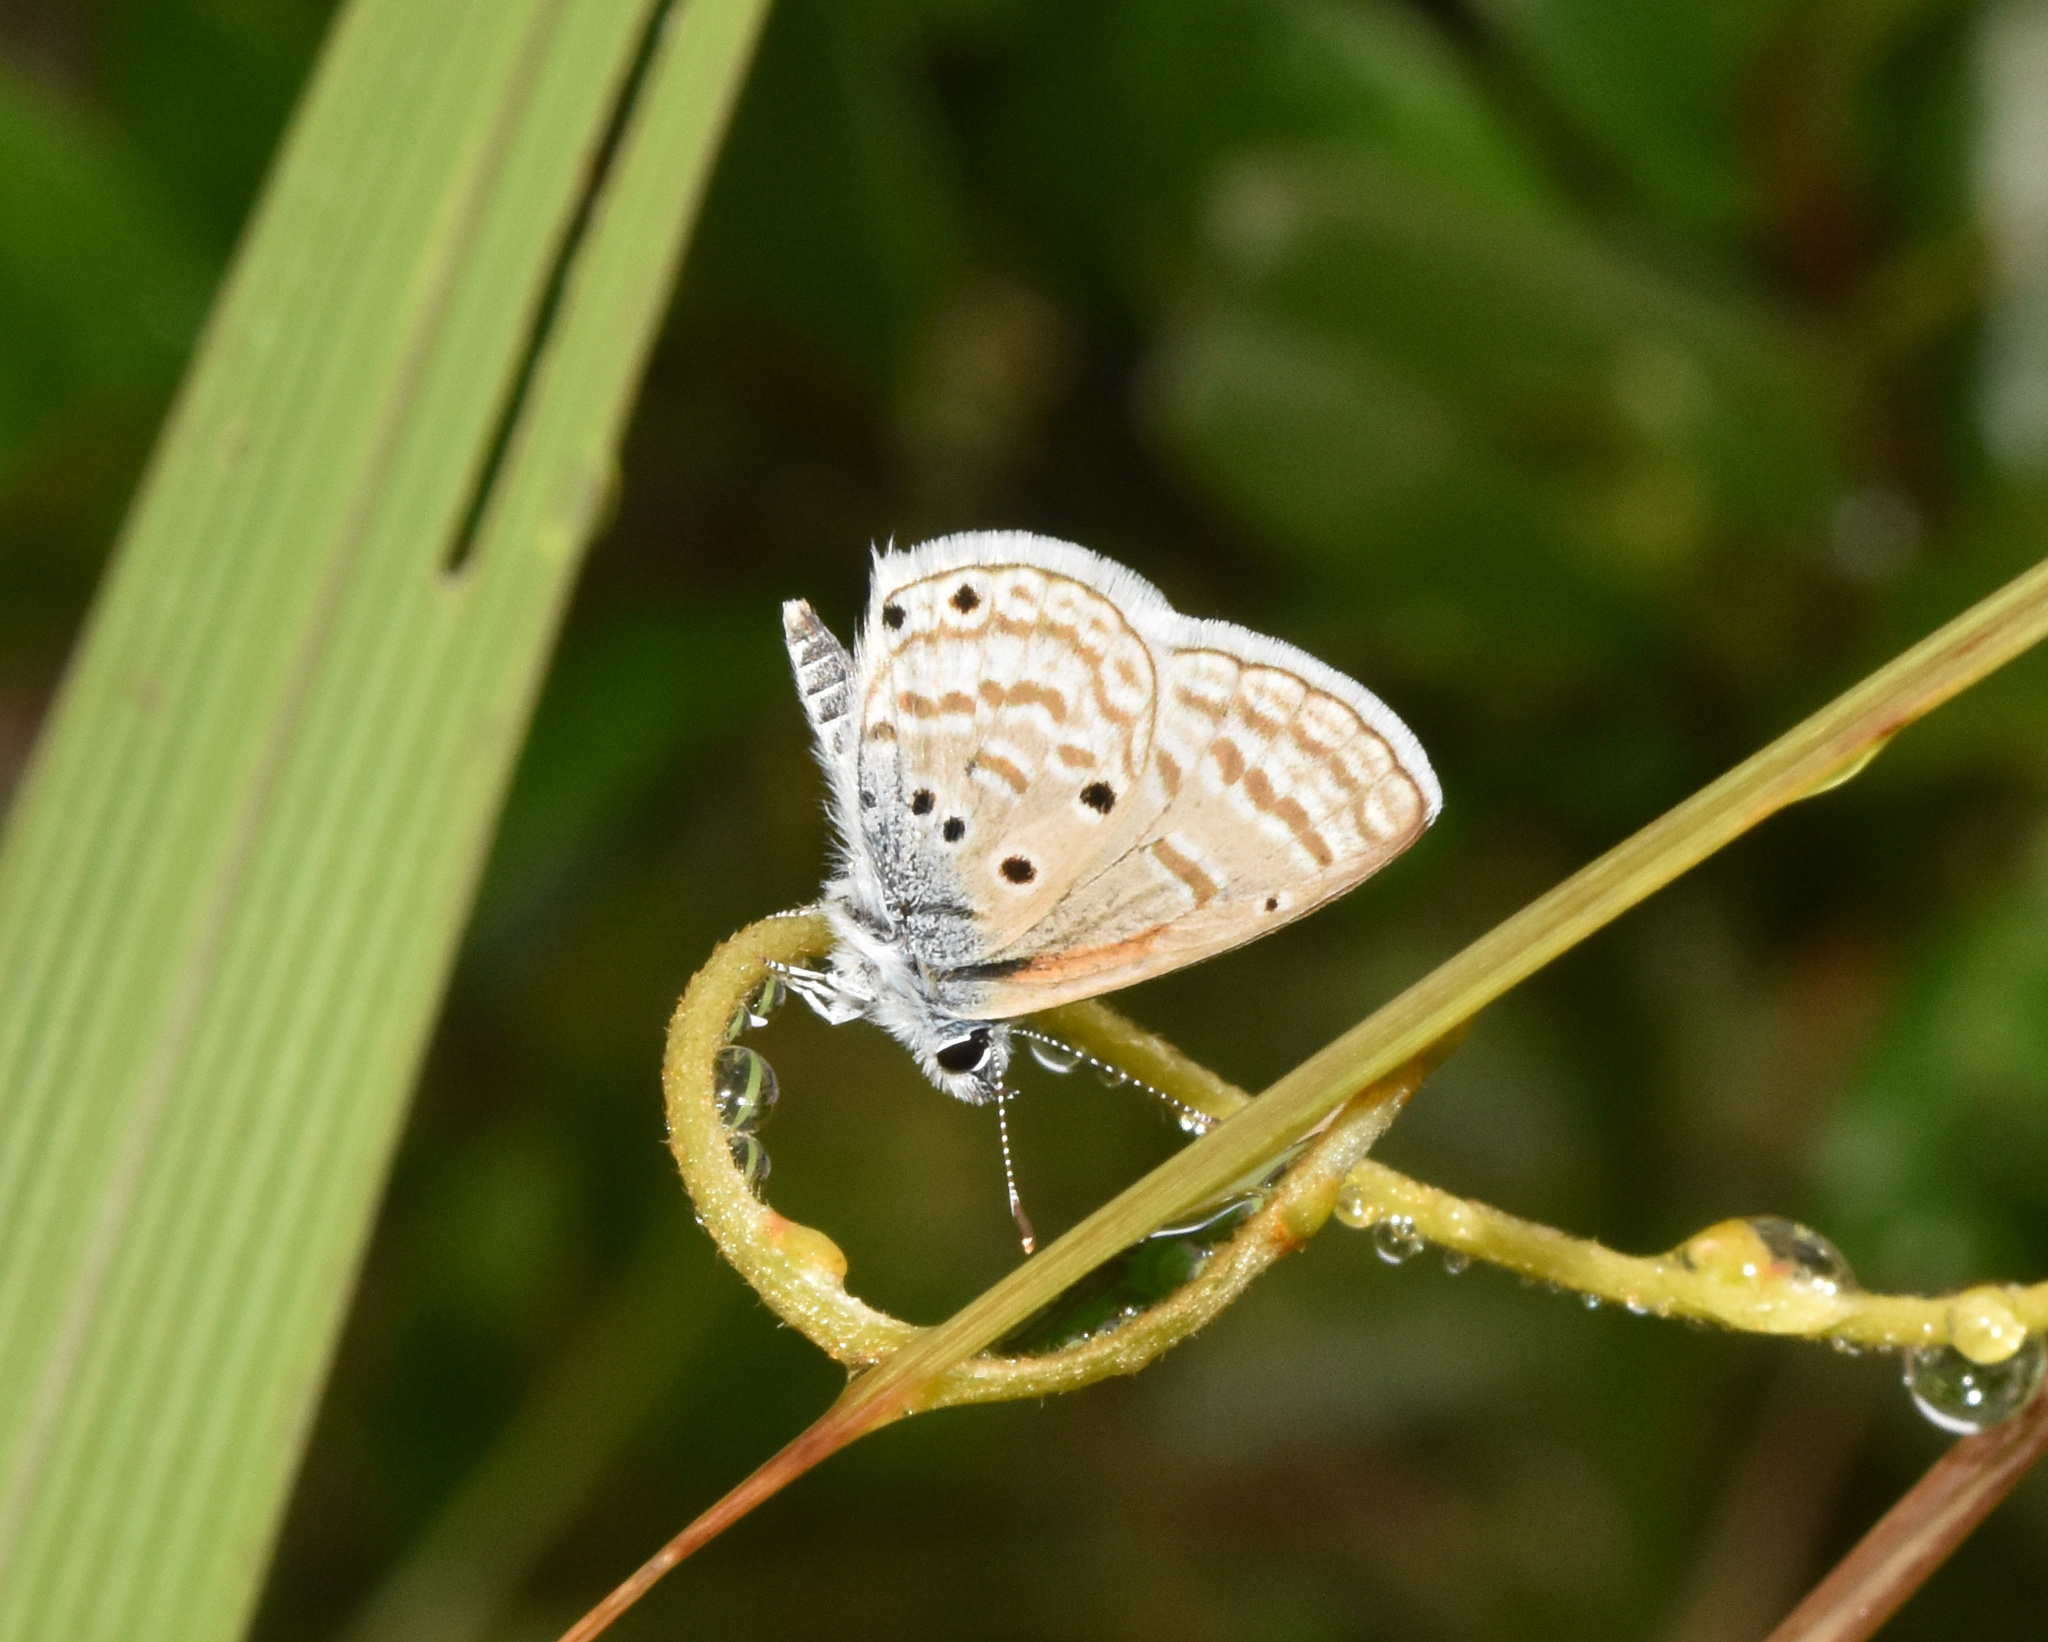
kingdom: Animalia
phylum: Arthropoda
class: Insecta
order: Lepidoptera
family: Lycaenidae
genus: Azanus
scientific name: Azanus jesous
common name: African babul blue
